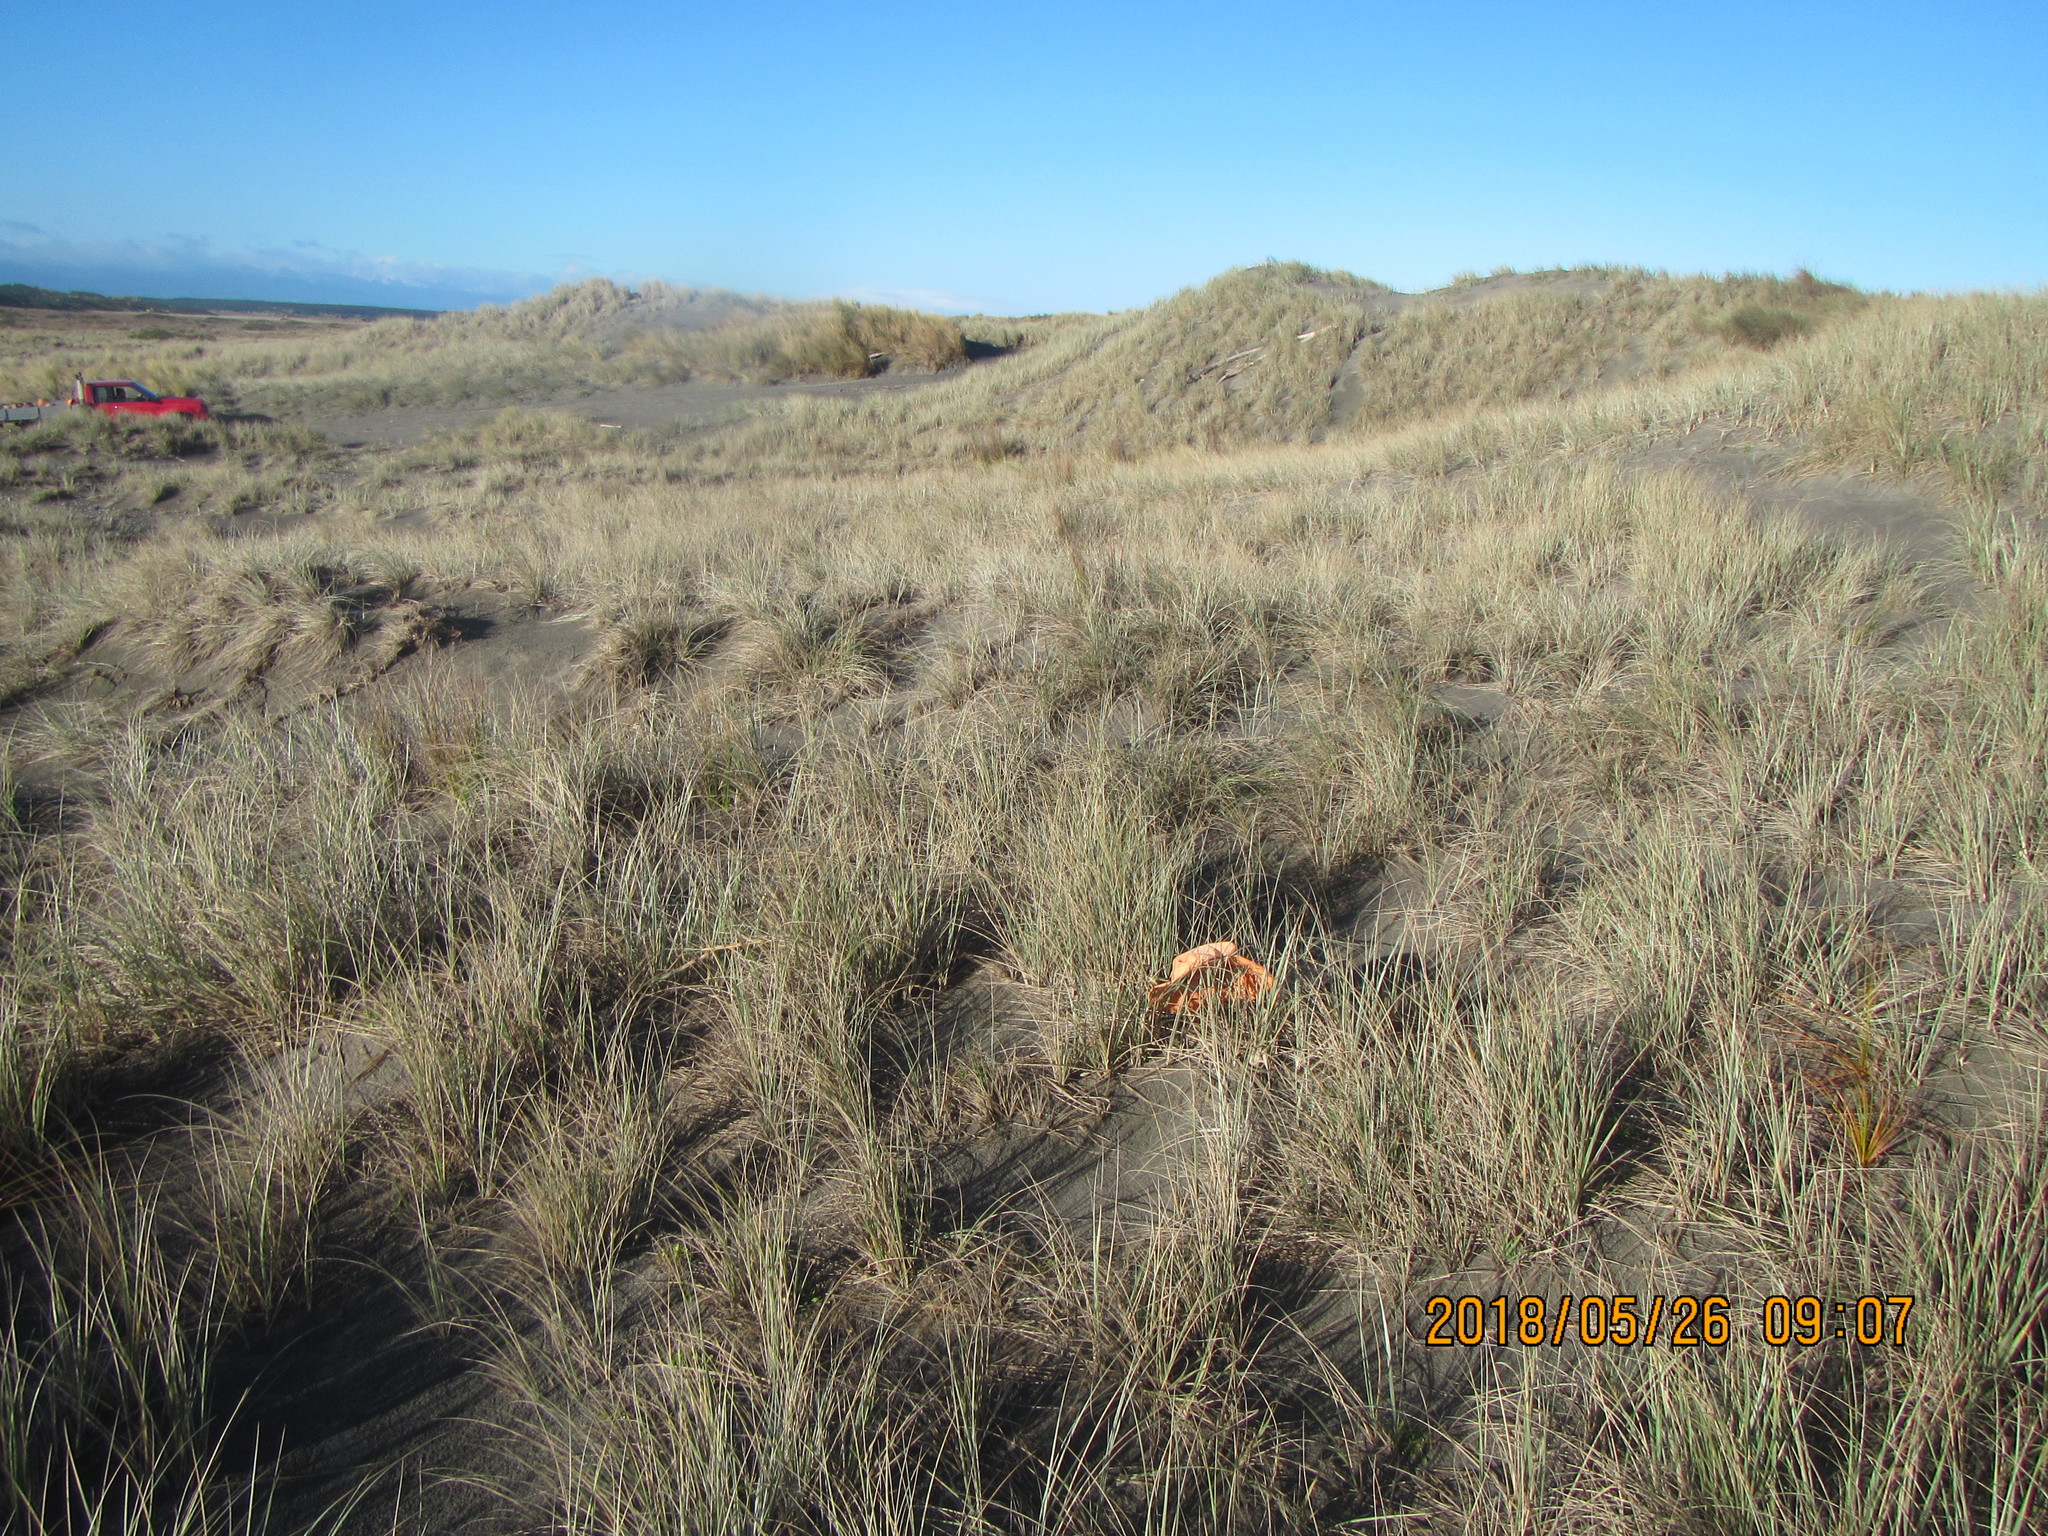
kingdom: Plantae
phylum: Tracheophyta
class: Liliopsida
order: Poales
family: Poaceae
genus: Lachnagrostis
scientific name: Lachnagrostis billardierei
